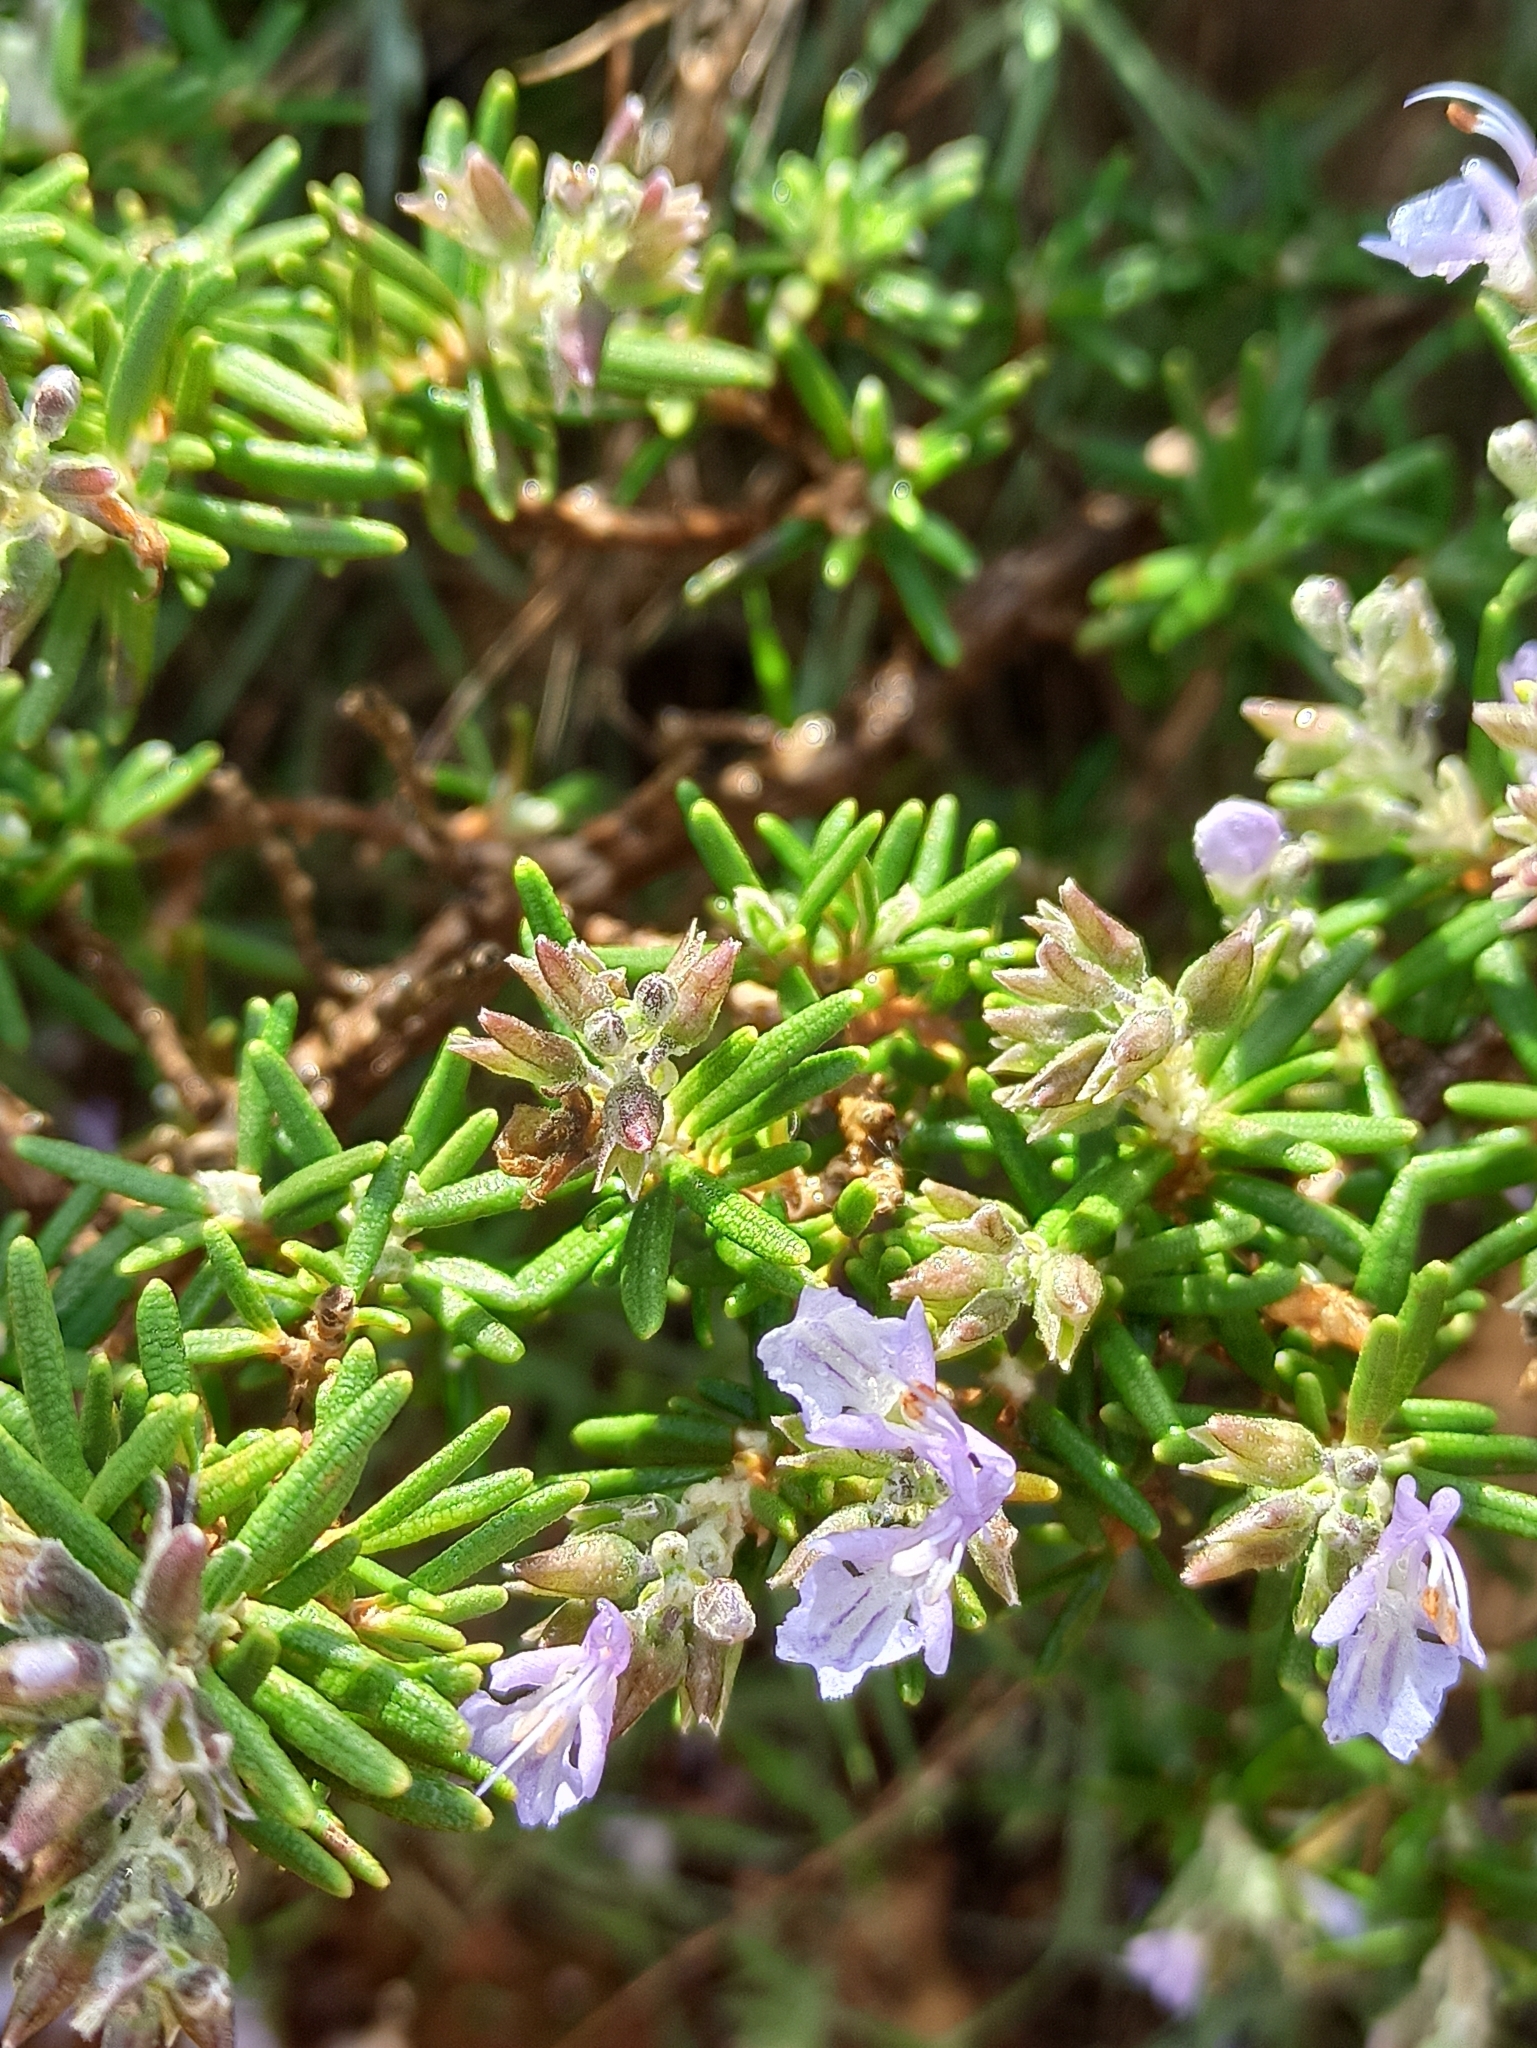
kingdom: Plantae
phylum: Tracheophyta
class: Magnoliopsida
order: Lamiales
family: Lamiaceae
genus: Salvia
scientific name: Salvia rosmarinus
